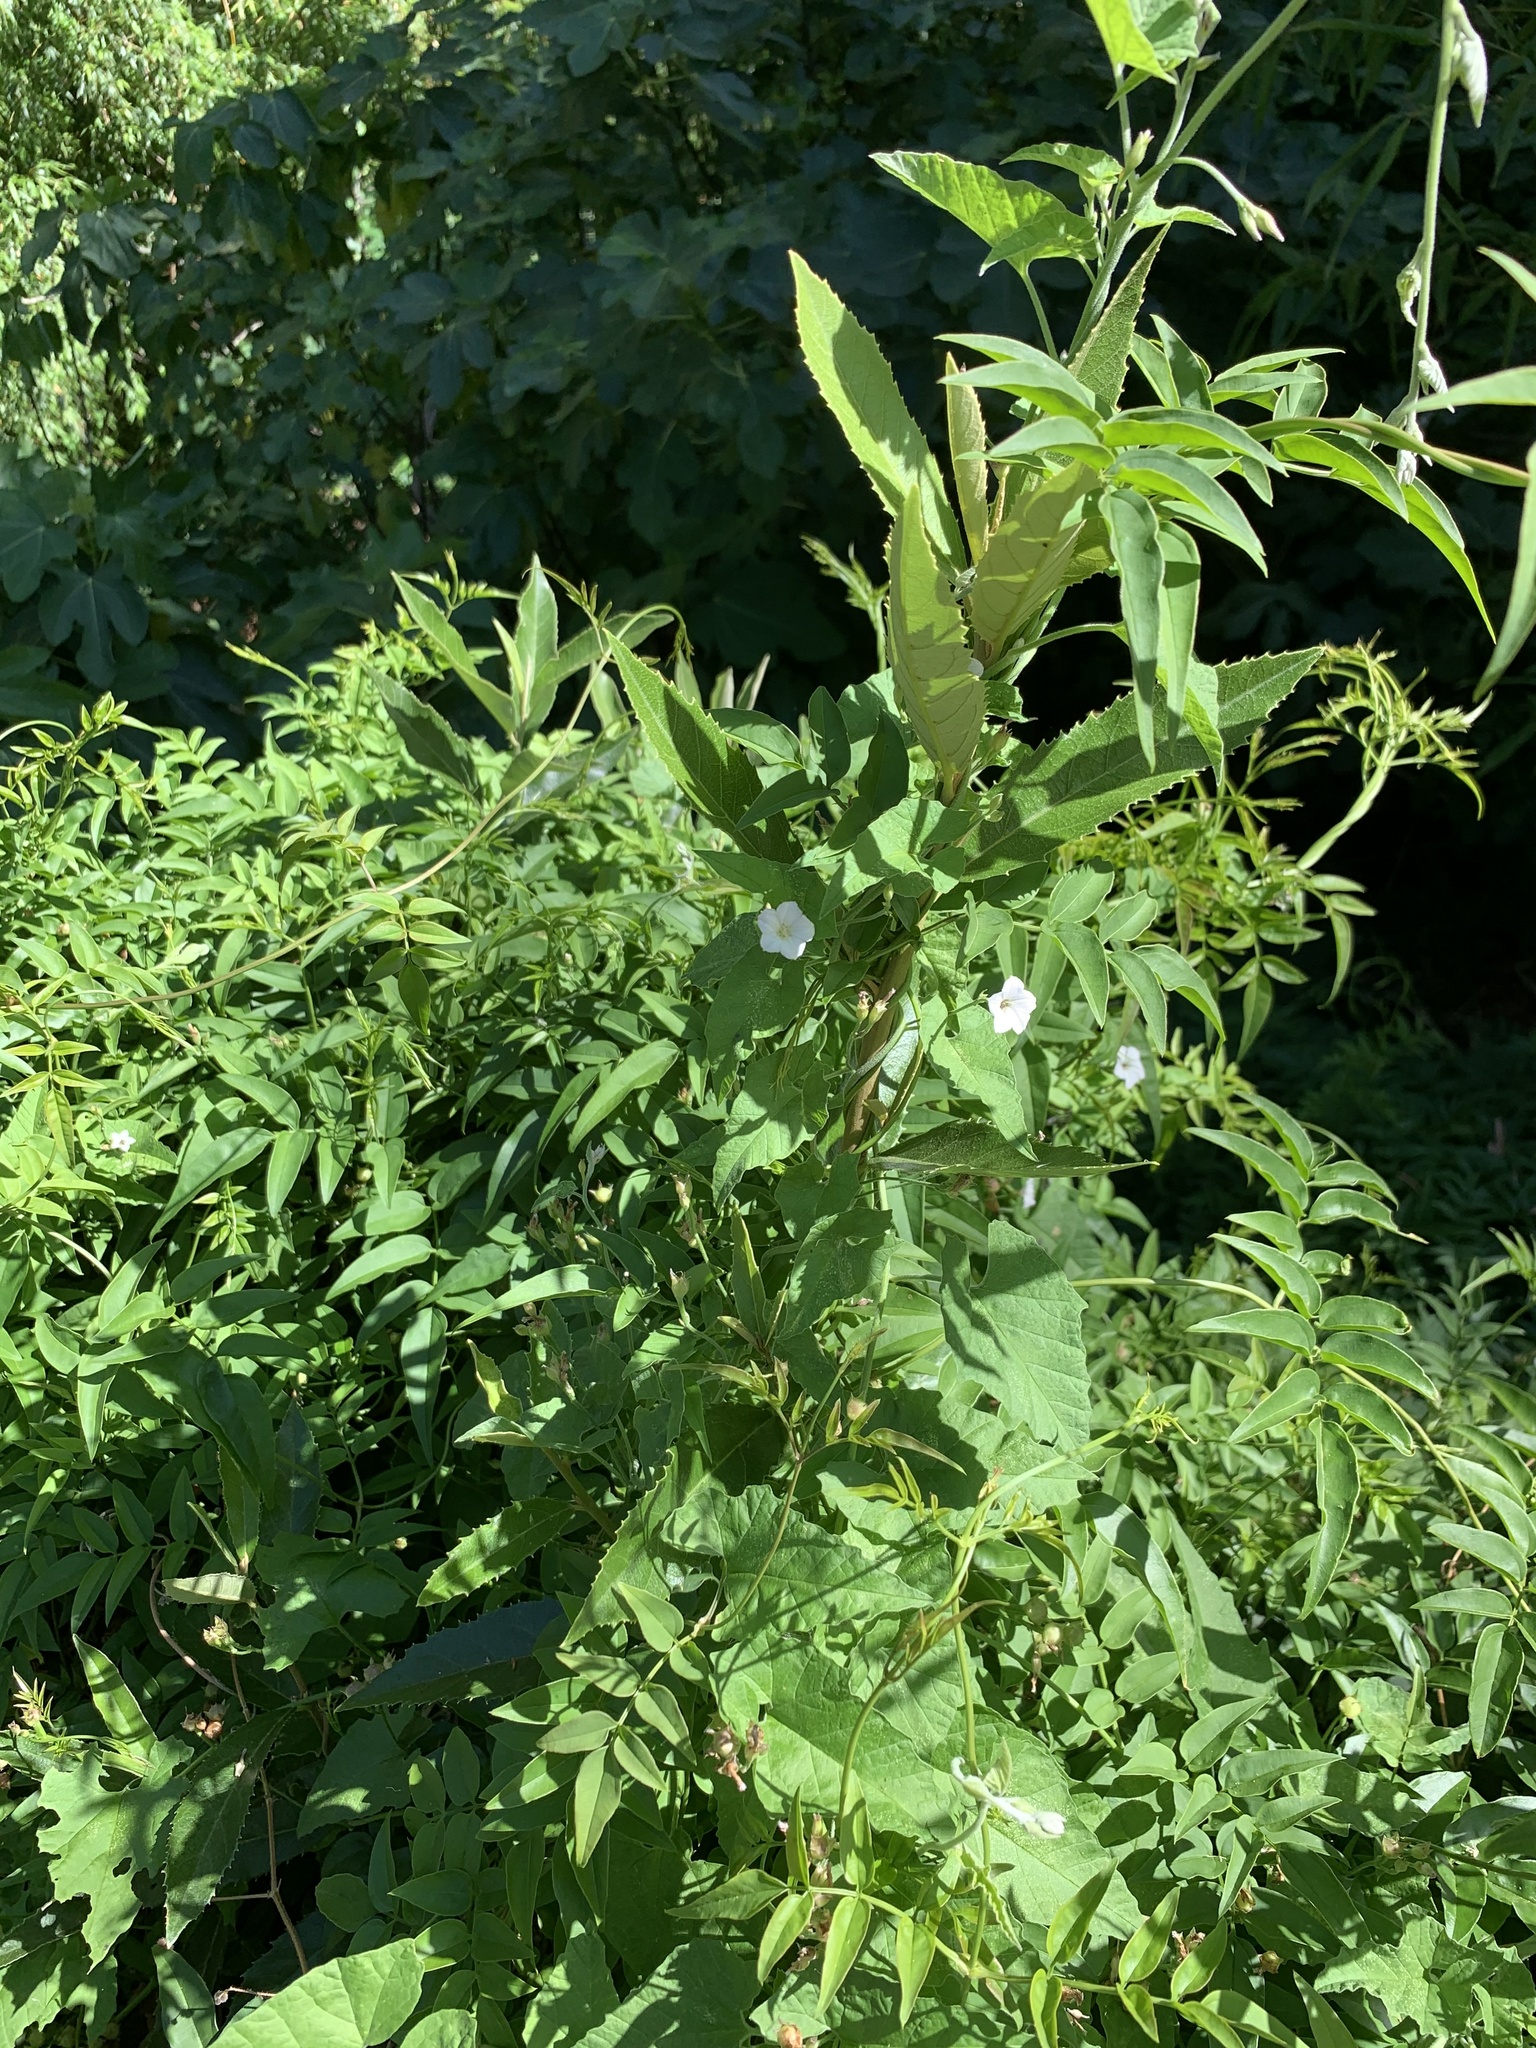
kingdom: Plantae
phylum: Tracheophyta
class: Magnoliopsida
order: Solanales
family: Convolvulaceae
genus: Convolvulus
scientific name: Convolvulus farinosus
